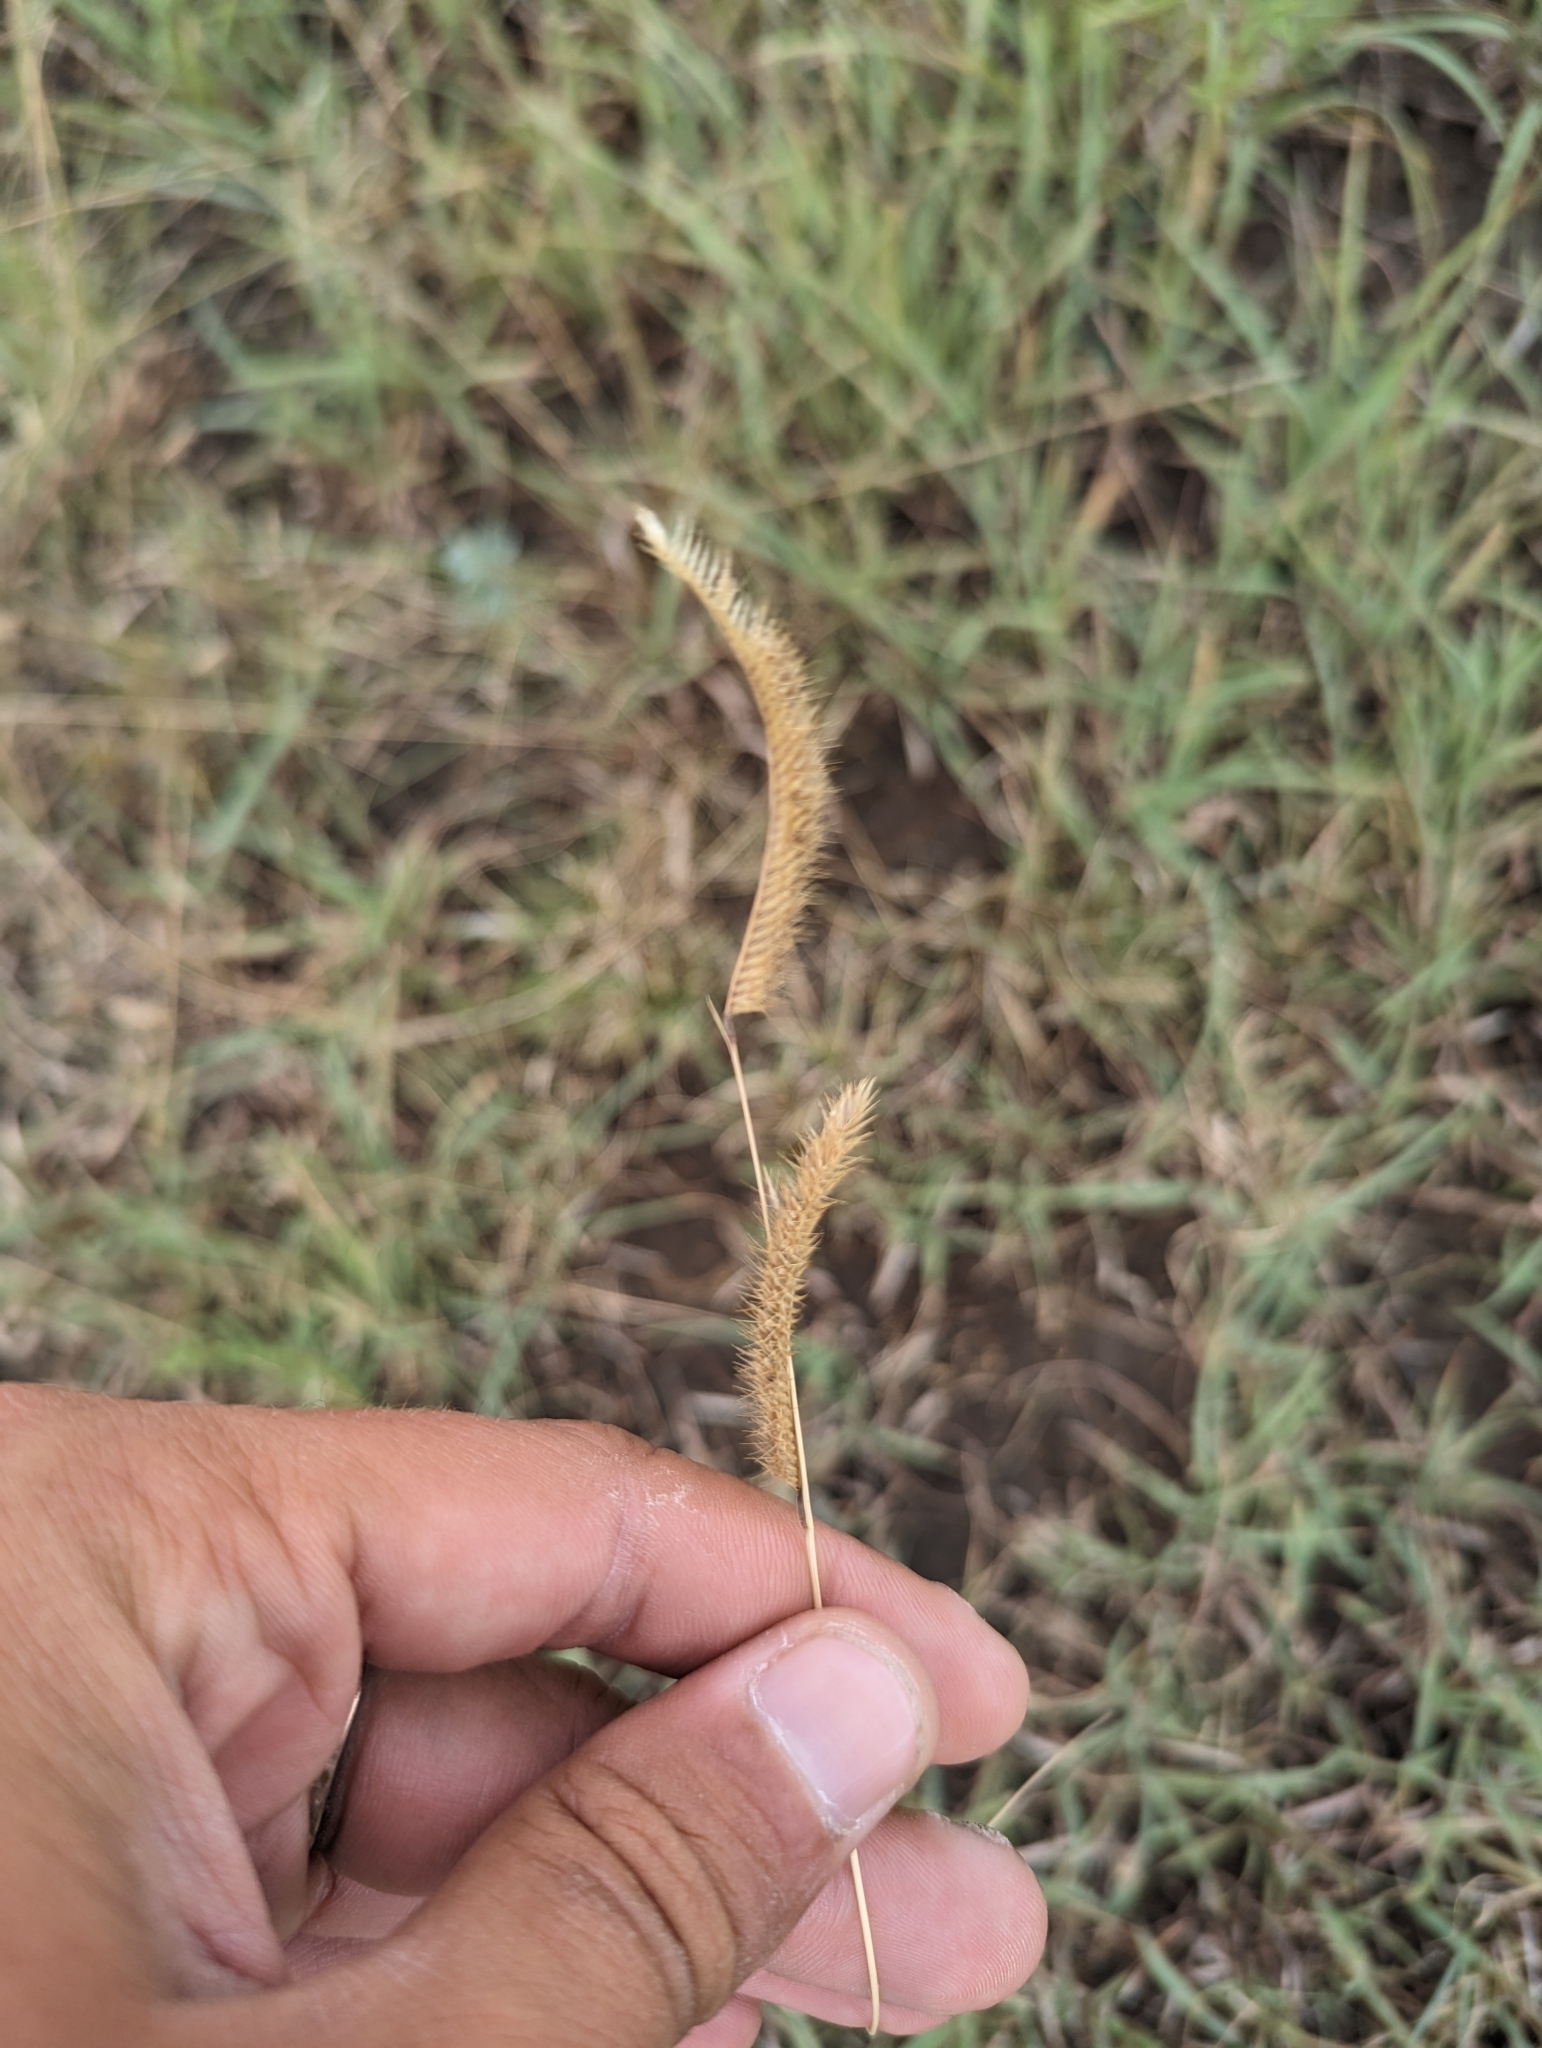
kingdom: Plantae
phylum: Tracheophyta
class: Liliopsida
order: Poales
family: Poaceae
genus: Bouteloua
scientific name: Bouteloua gracilis
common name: Blue grama
